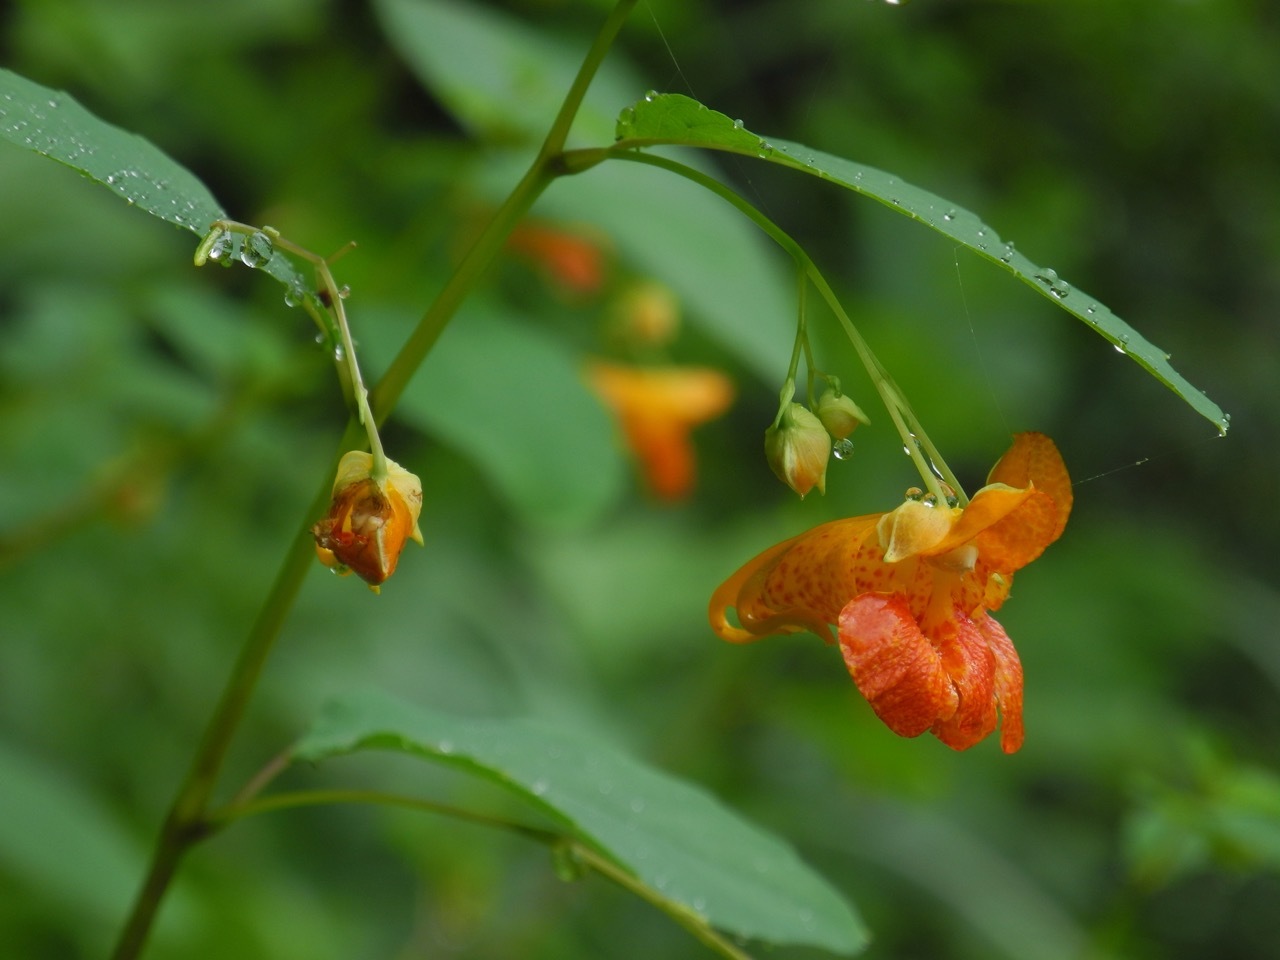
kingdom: Plantae
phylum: Tracheophyta
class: Magnoliopsida
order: Ericales
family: Balsaminaceae
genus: Impatiens
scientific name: Impatiens capensis
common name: Orange balsam
